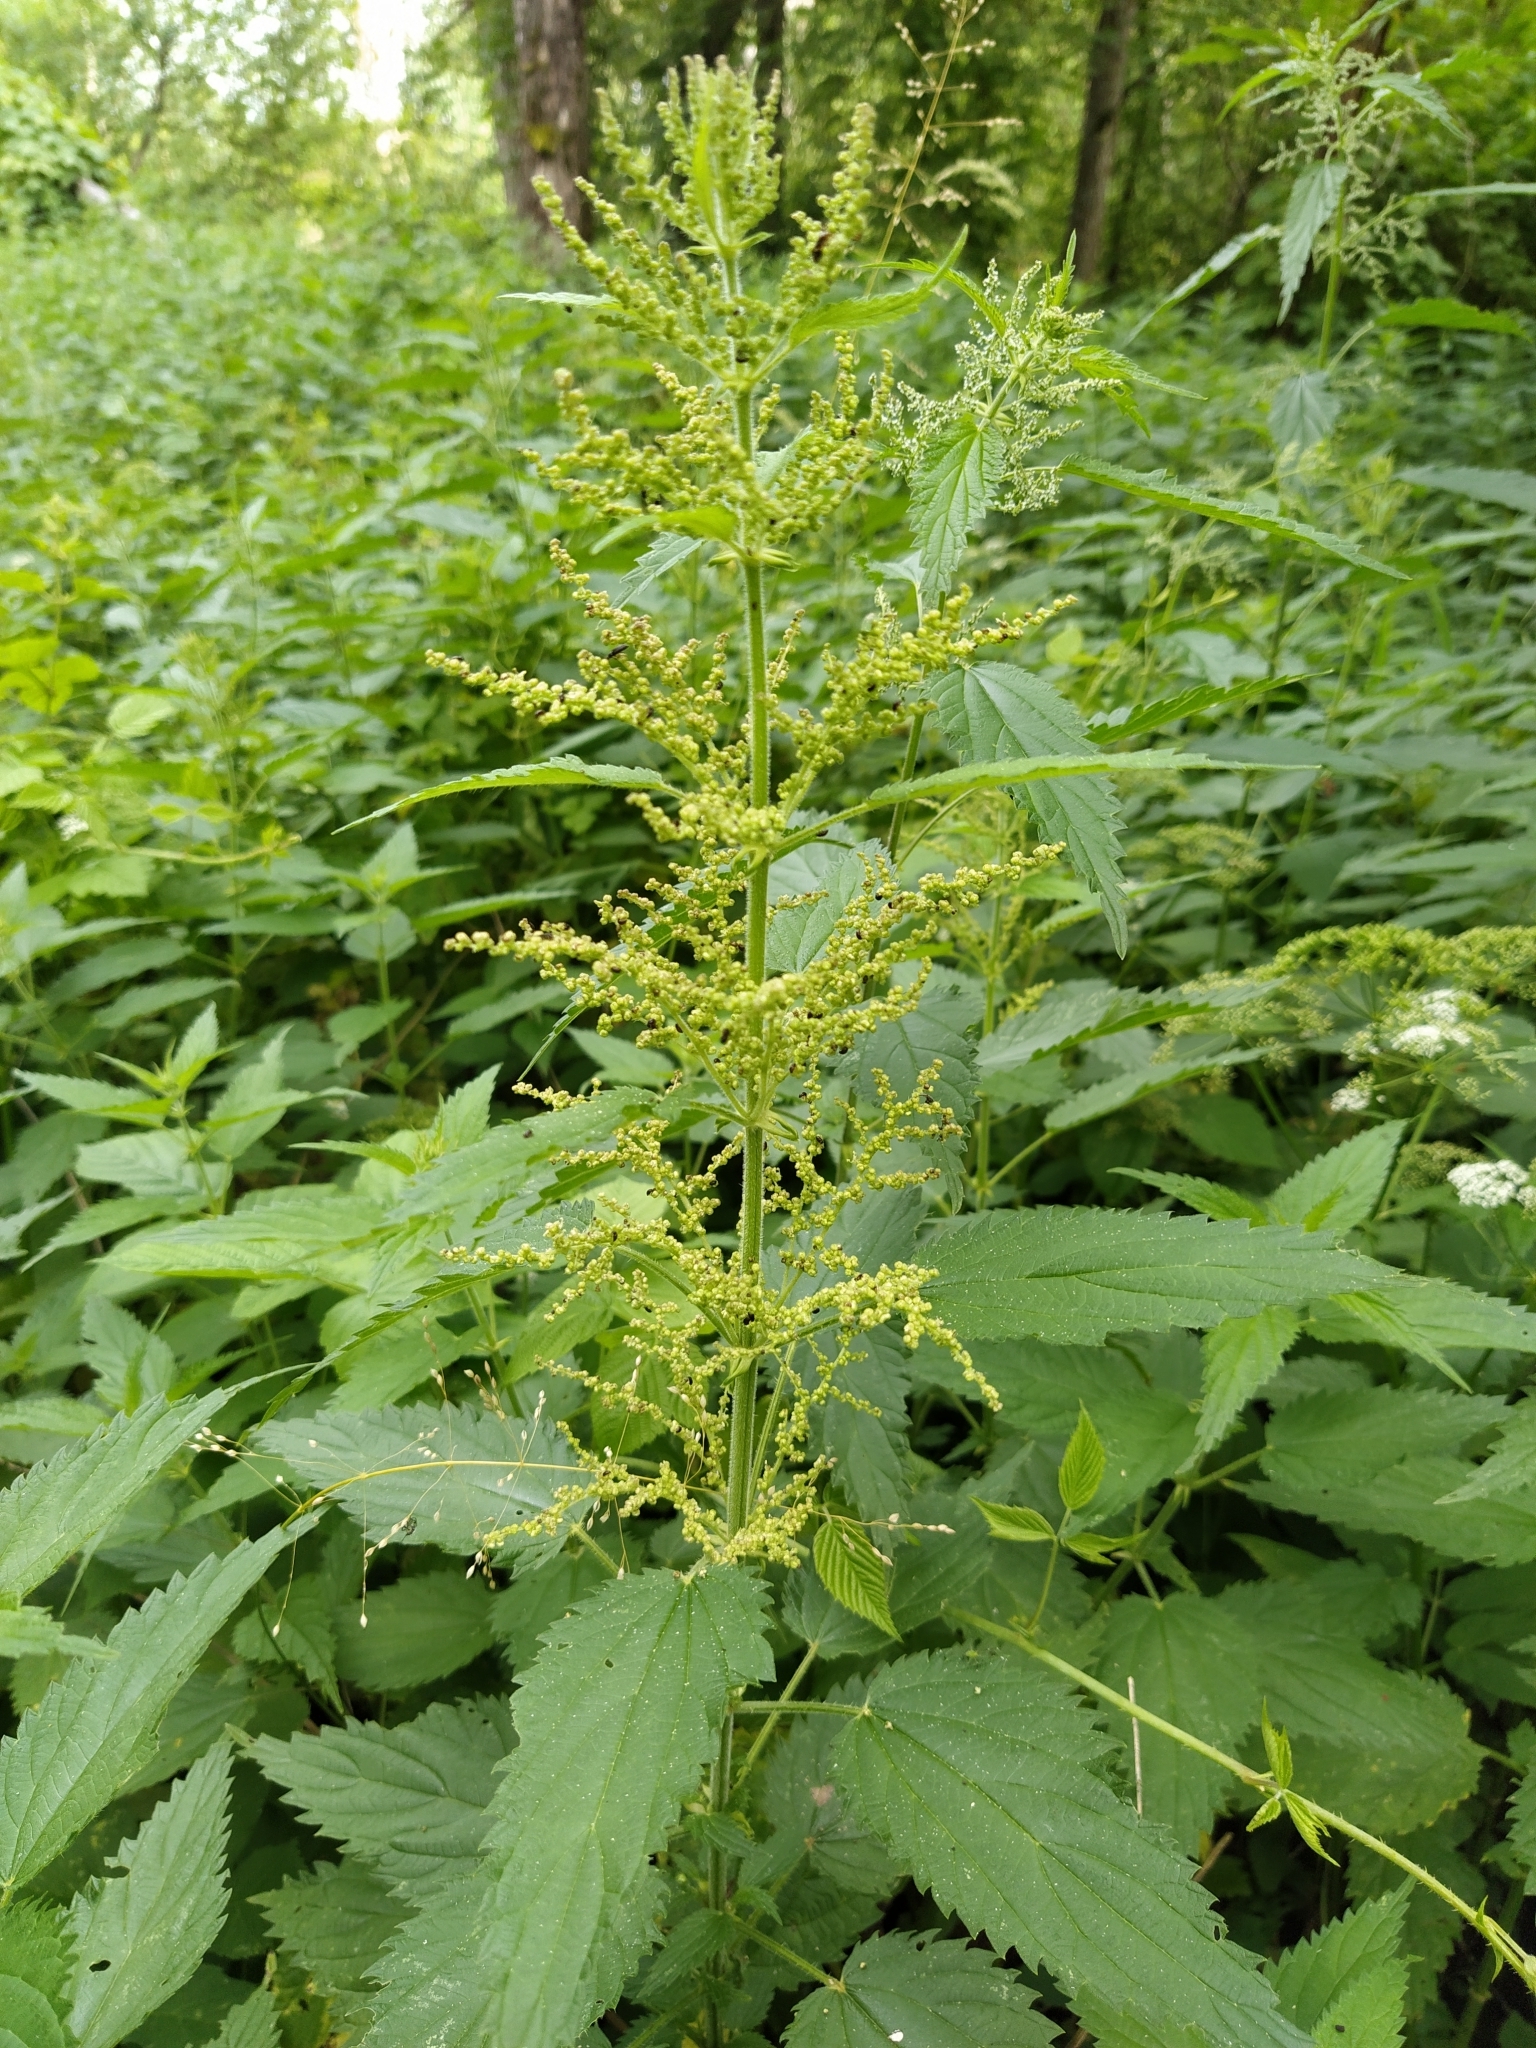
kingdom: Plantae
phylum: Tracheophyta
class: Magnoliopsida
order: Rosales
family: Urticaceae
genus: Urtica
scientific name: Urtica dioica
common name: Common nettle
